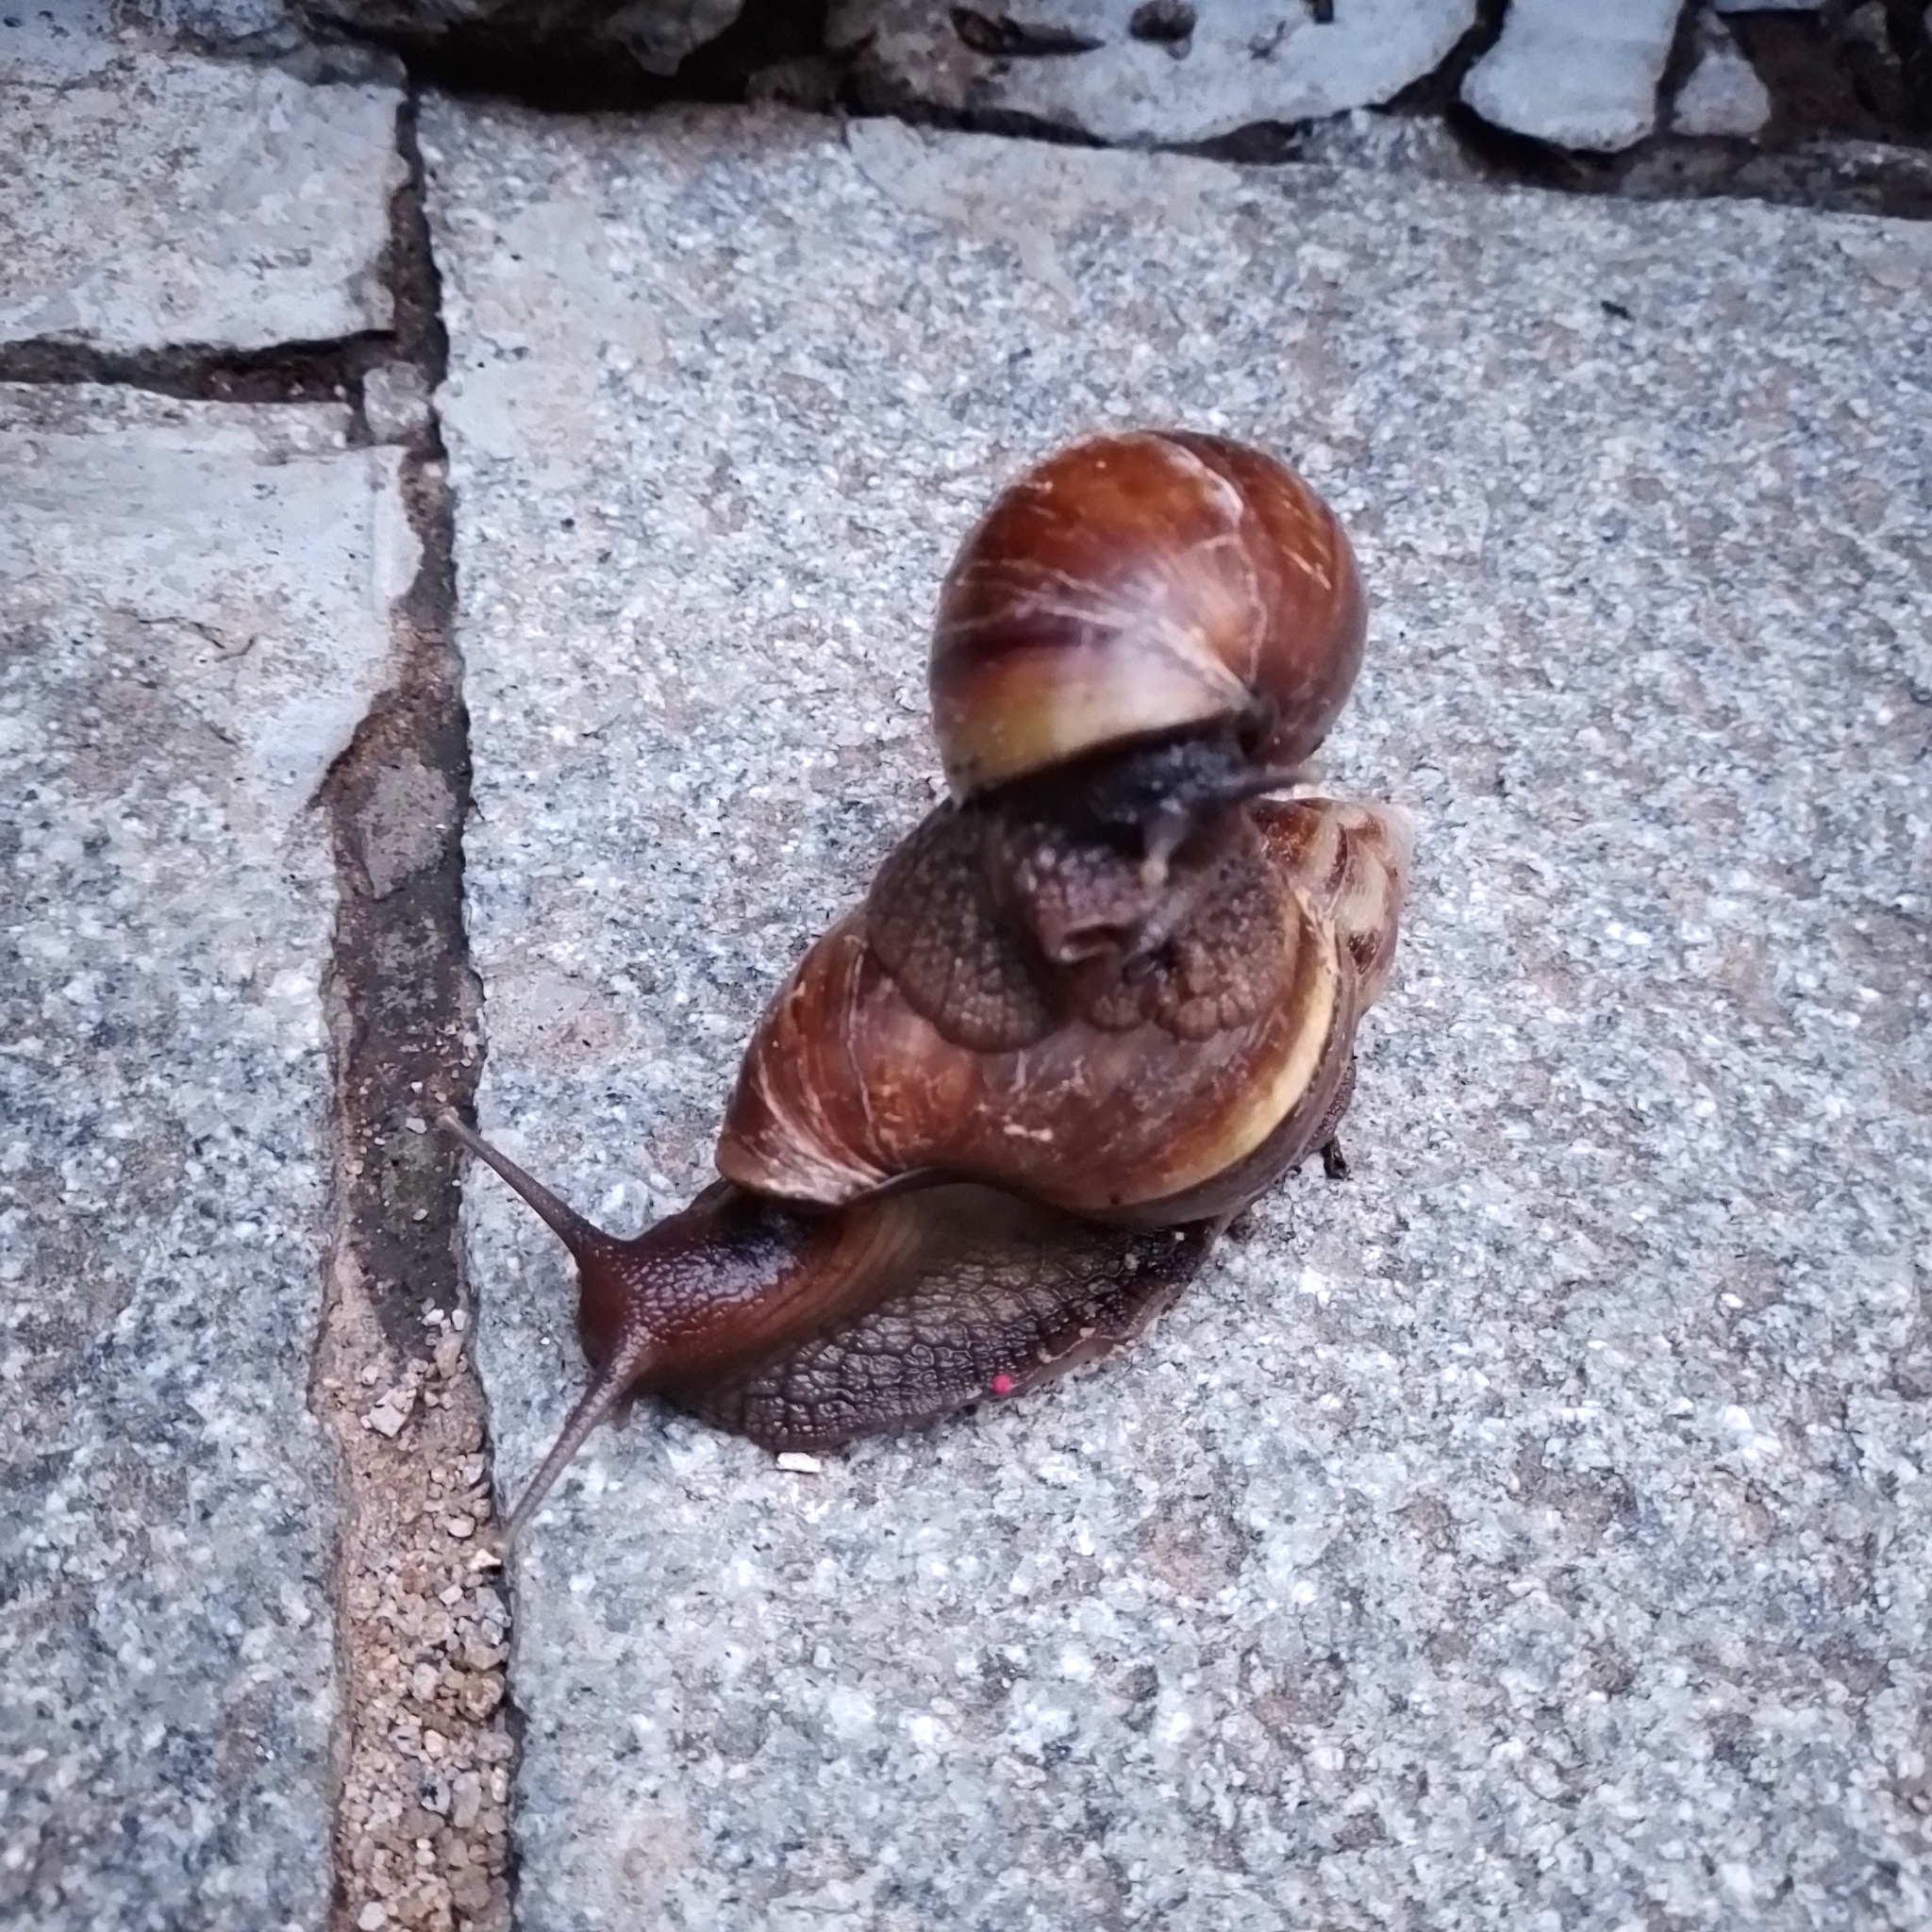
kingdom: Animalia
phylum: Mollusca
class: Gastropoda
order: Stylommatophora
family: Achatinidae
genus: Lissachatina
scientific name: Lissachatina fulica
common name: Giant african snail
